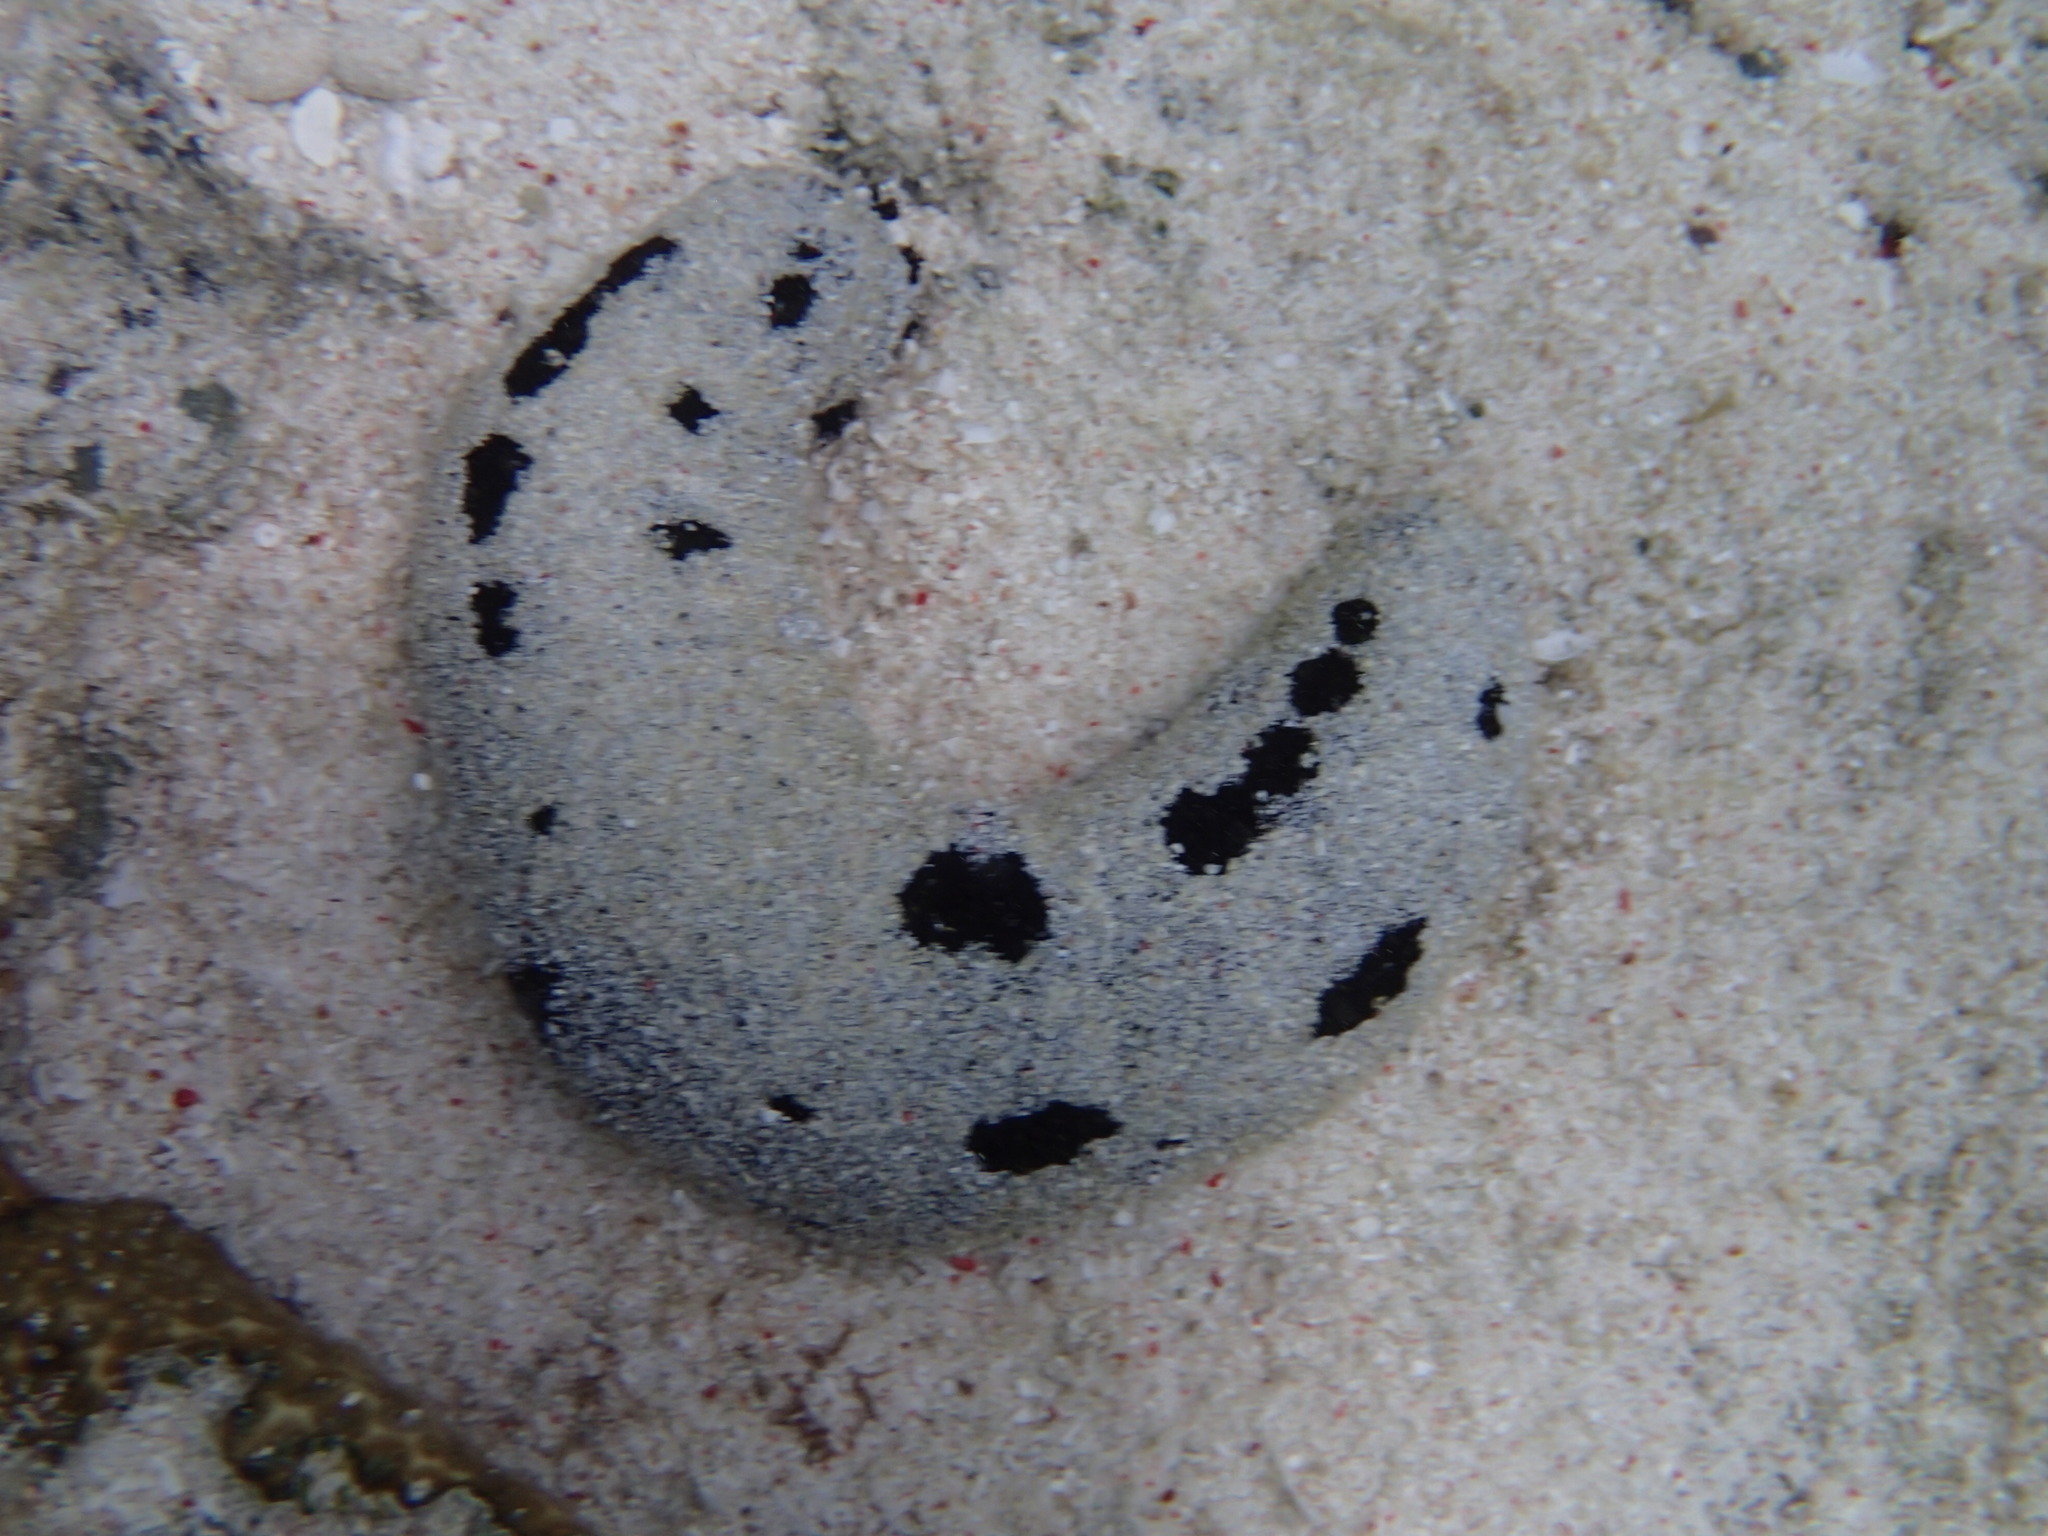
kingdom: Animalia
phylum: Echinodermata
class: Holothuroidea
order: Holothuriida
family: Holothuriidae
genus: Holothuria
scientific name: Holothuria atra
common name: Lollyfish
